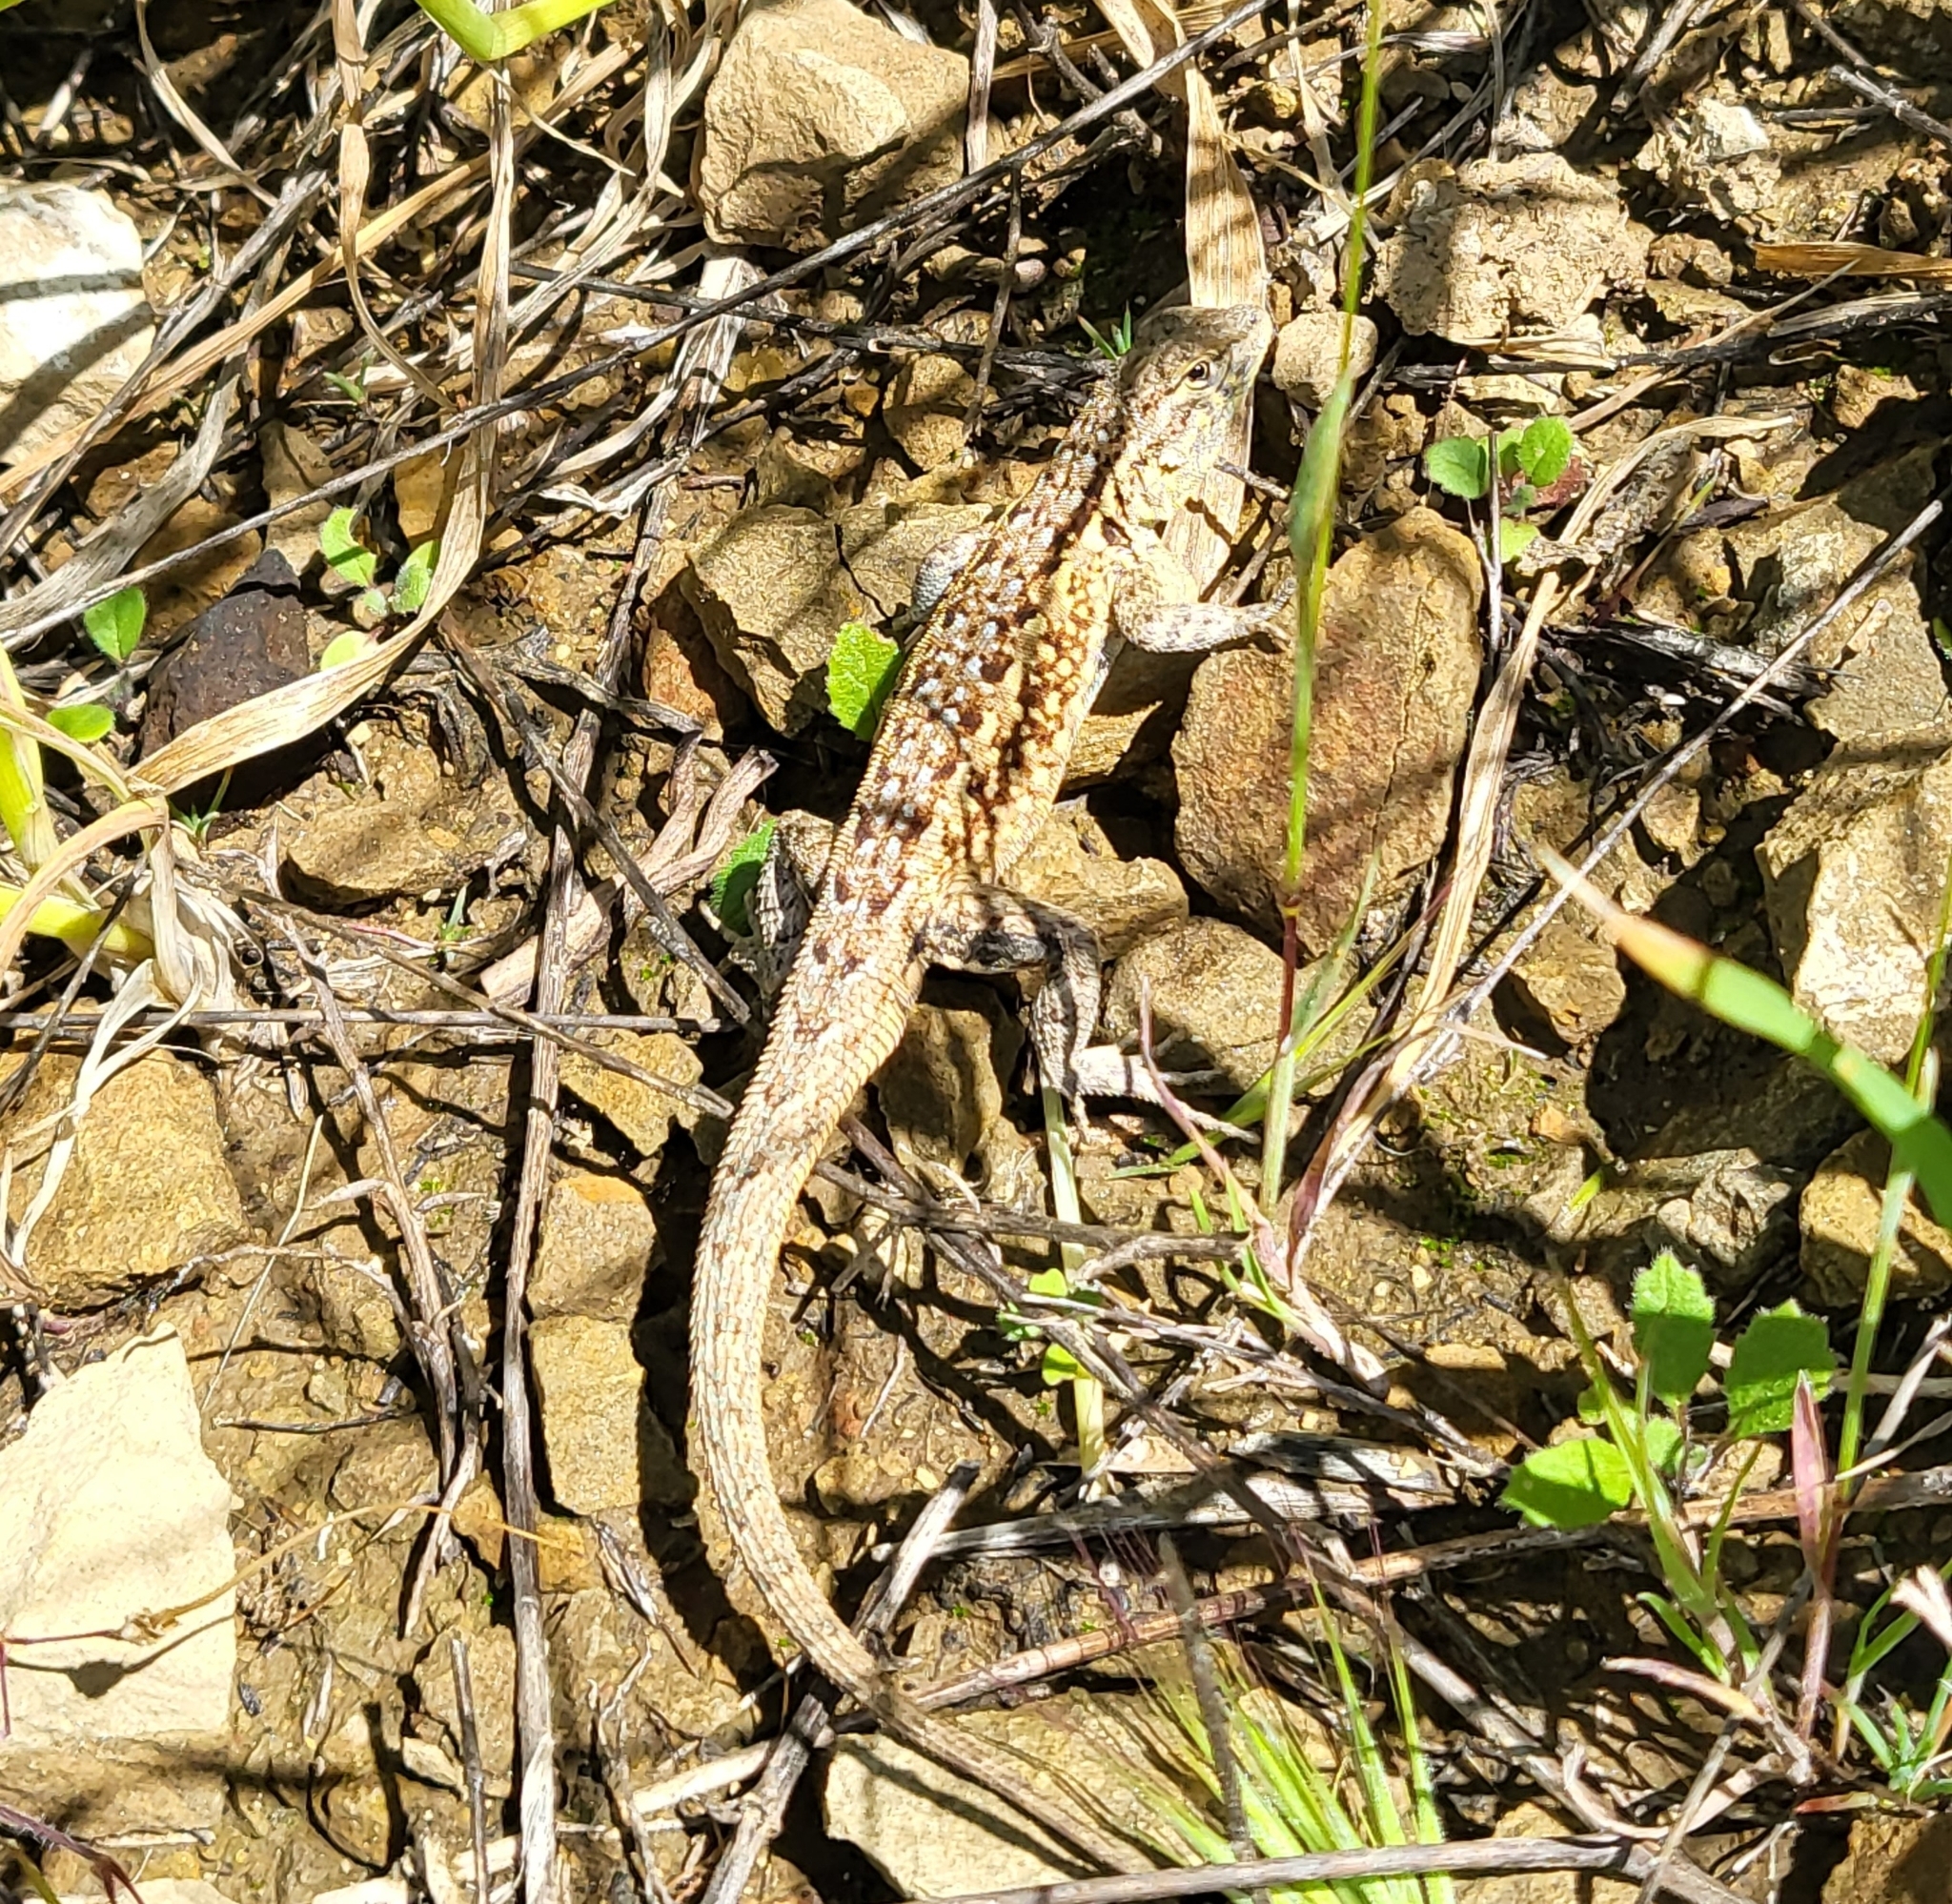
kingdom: Animalia
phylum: Chordata
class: Squamata
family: Phrynosomatidae
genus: Uta
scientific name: Uta stansburiana
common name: Side-blotched lizard
